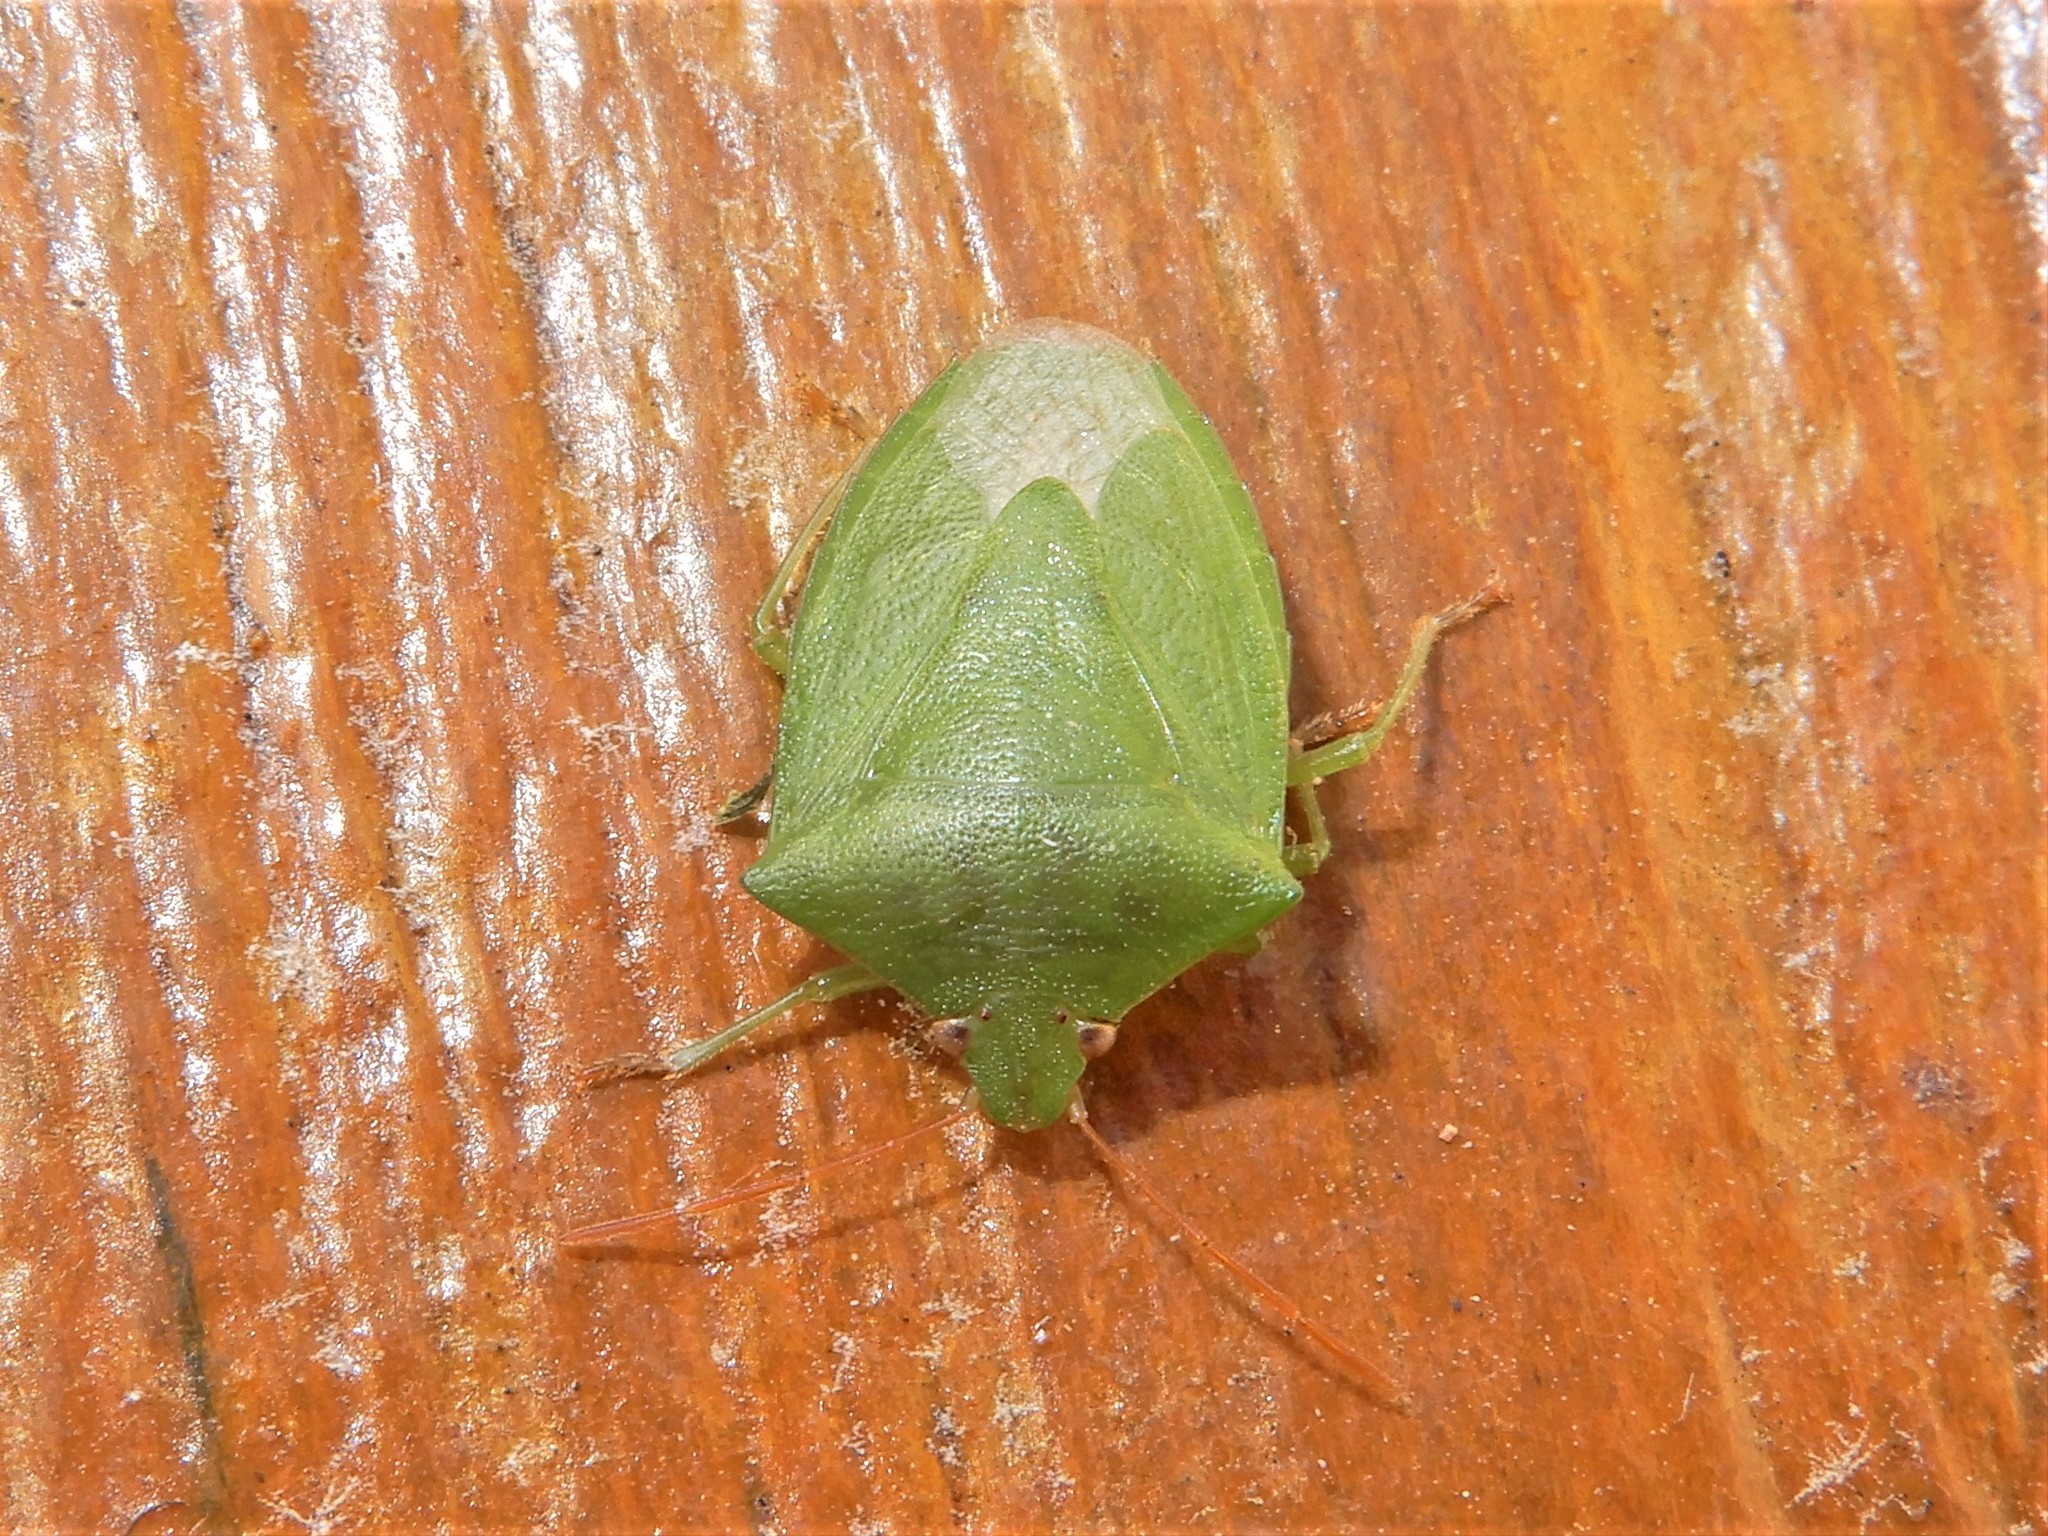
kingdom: Animalia
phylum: Arthropoda
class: Insecta
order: Hemiptera
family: Pentatomidae
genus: Cuspicona
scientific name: Cuspicona simplex
